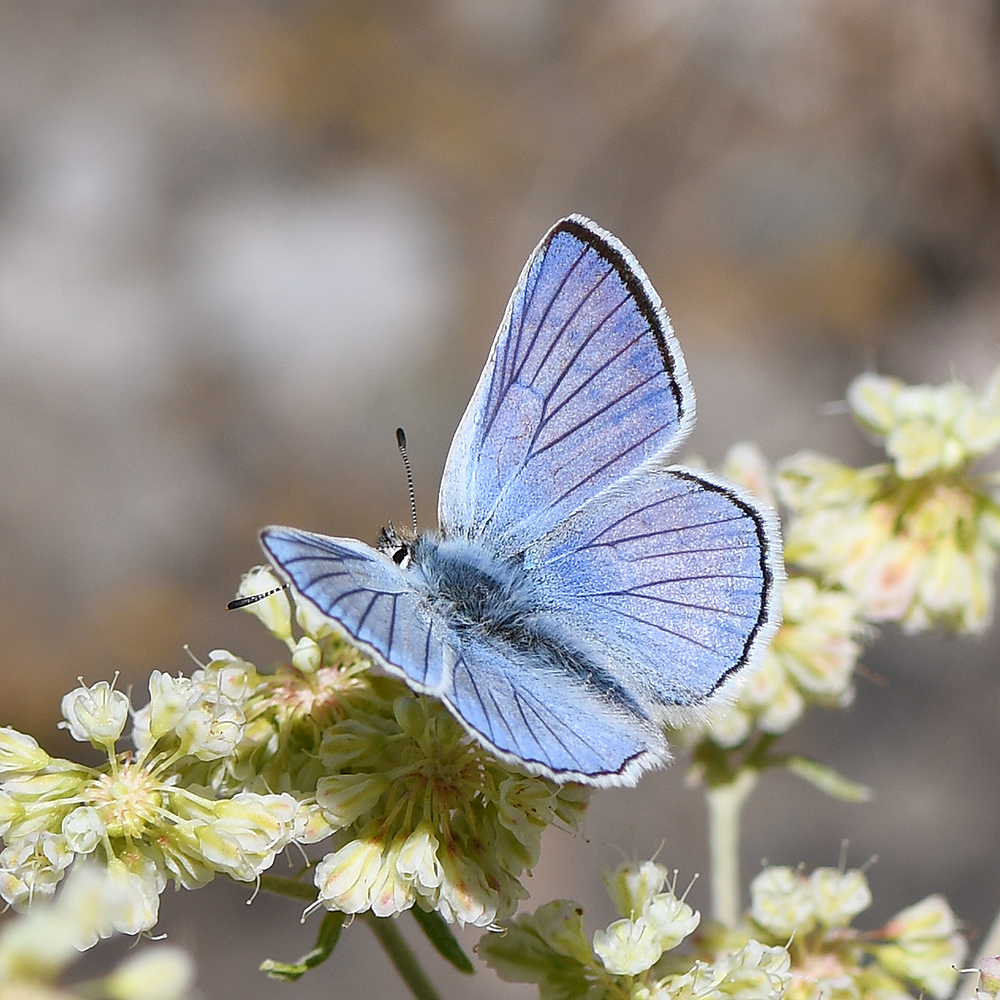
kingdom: Animalia
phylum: Arthropoda
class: Insecta
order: Lepidoptera
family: Lycaenidae
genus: Tharsalea
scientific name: Tharsalea heteronea
